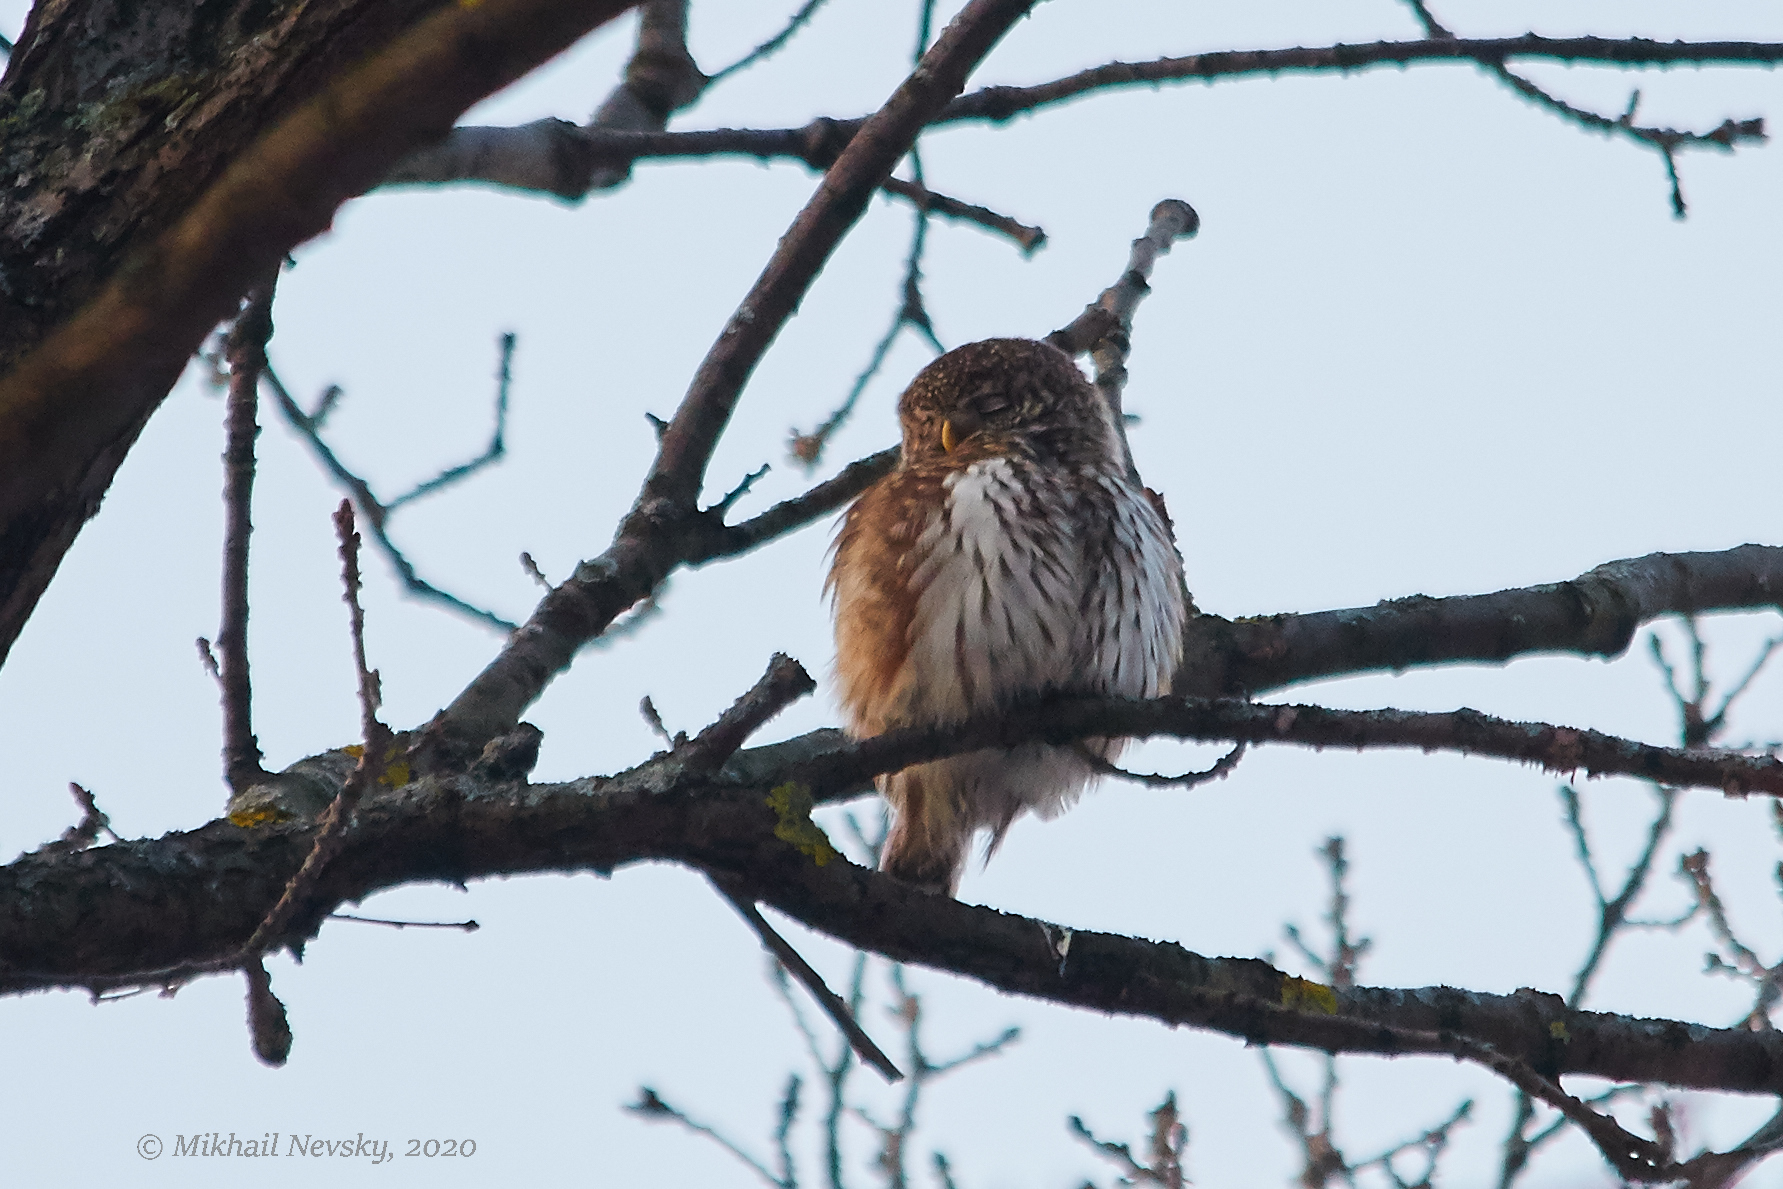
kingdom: Animalia
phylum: Chordata
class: Aves
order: Strigiformes
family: Strigidae
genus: Glaucidium
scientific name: Glaucidium passerinum
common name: Eurasian pygmy owl
